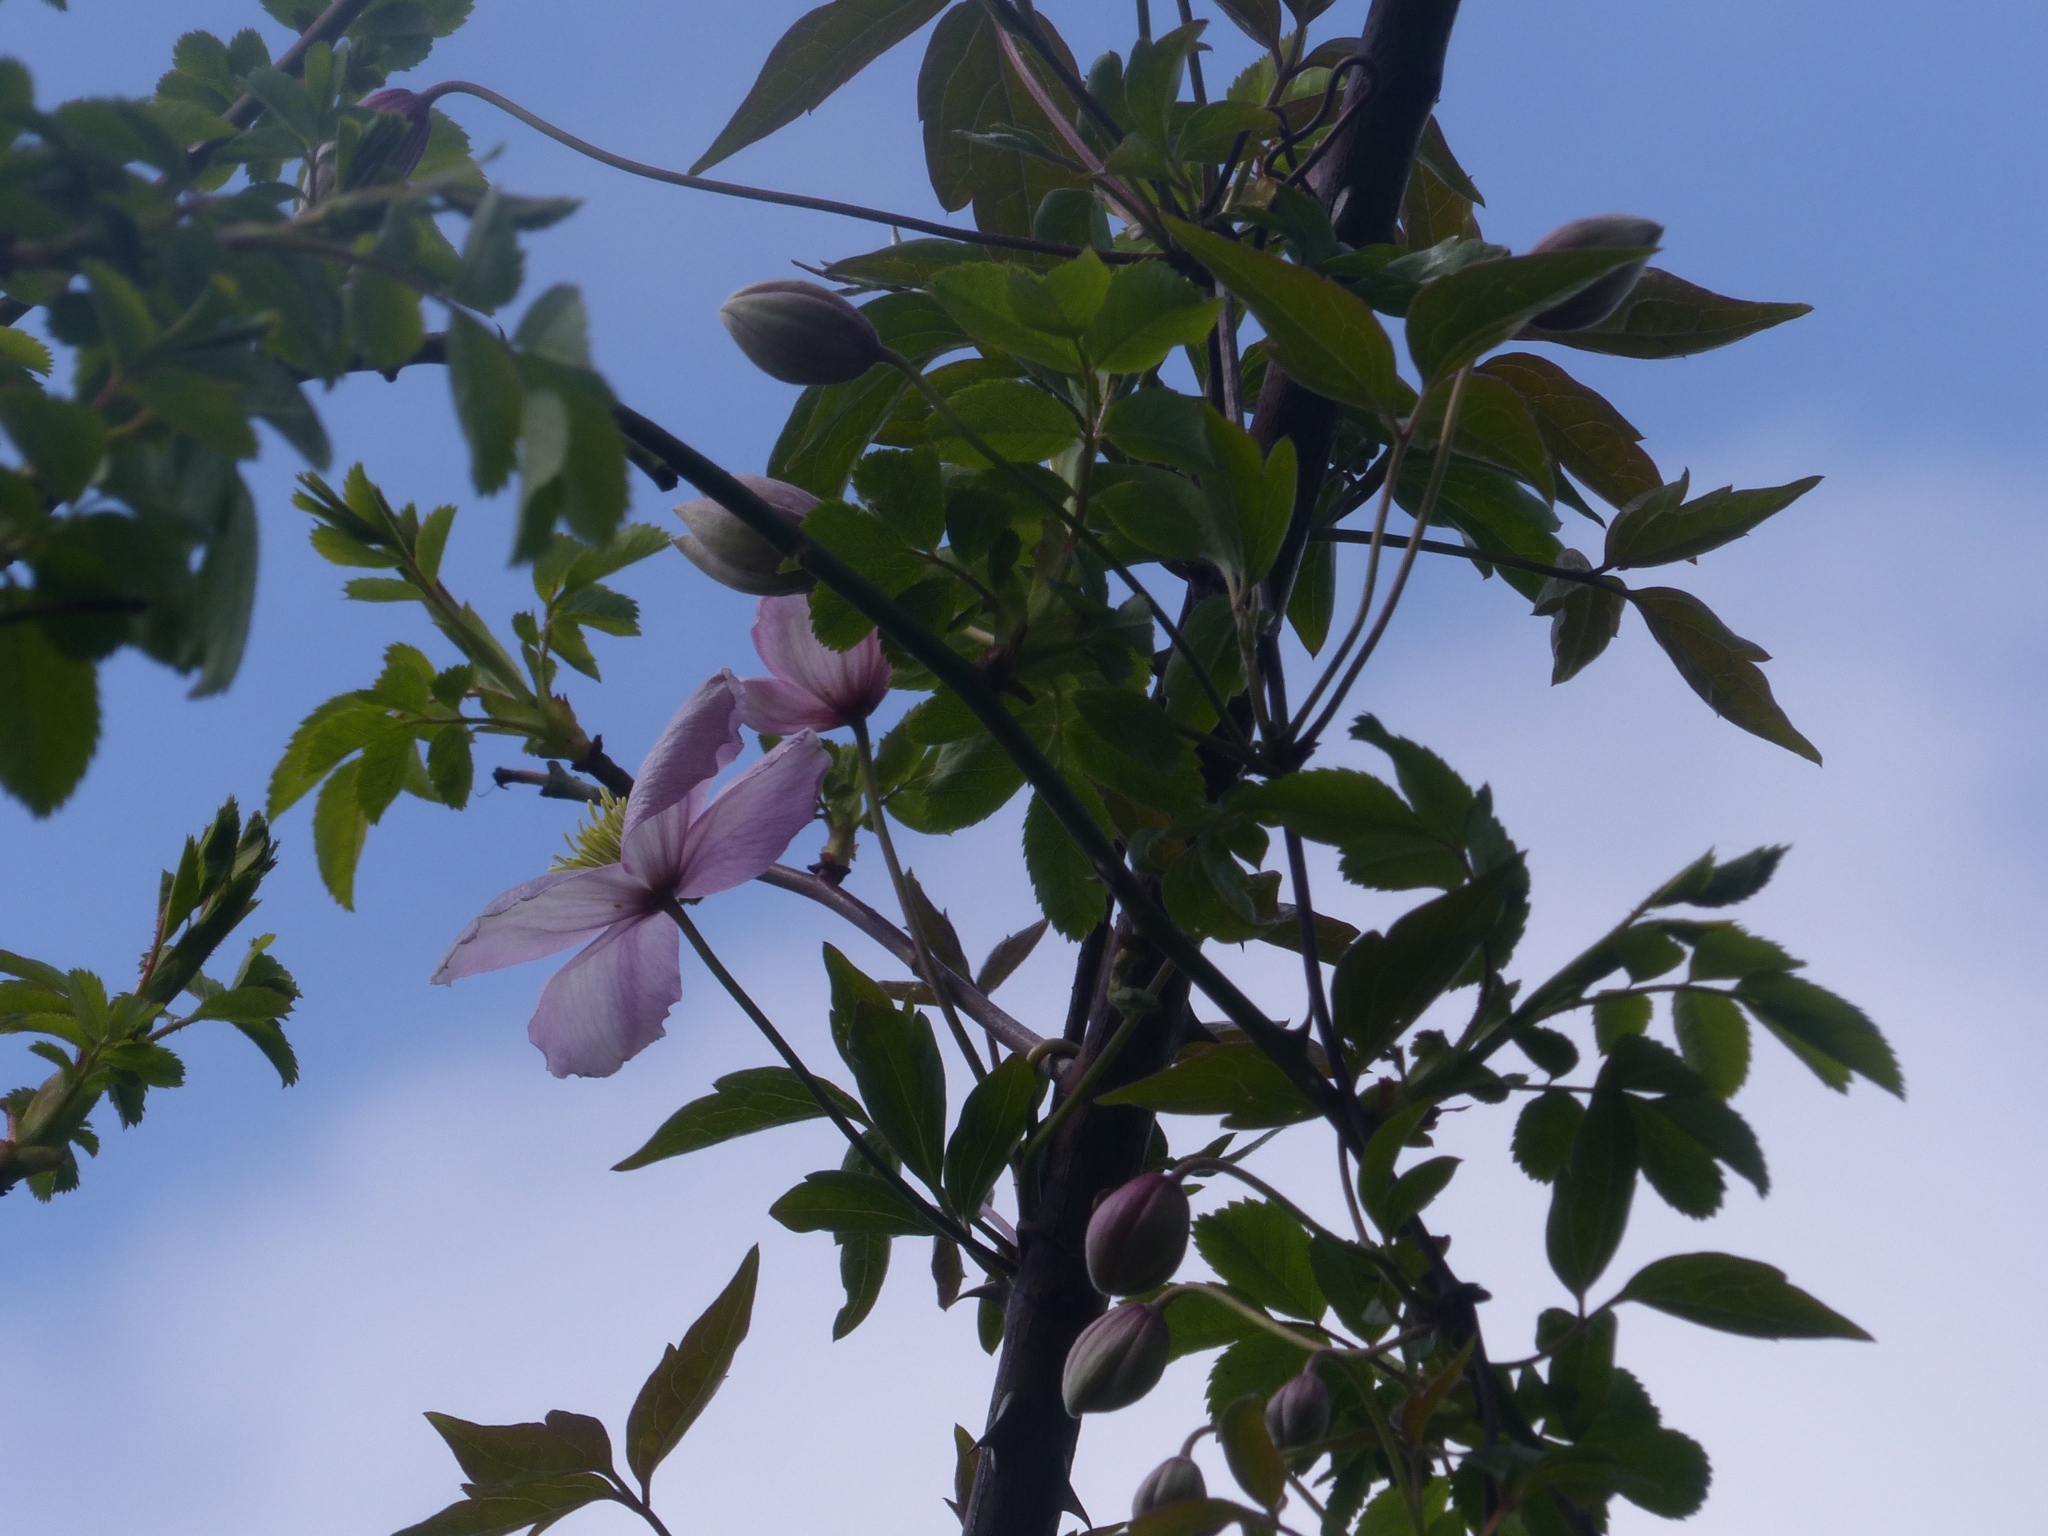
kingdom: Plantae
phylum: Tracheophyta
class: Magnoliopsida
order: Ranunculales
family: Ranunculaceae
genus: Clematis
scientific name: Clematis montana
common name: Himalayan clematis
